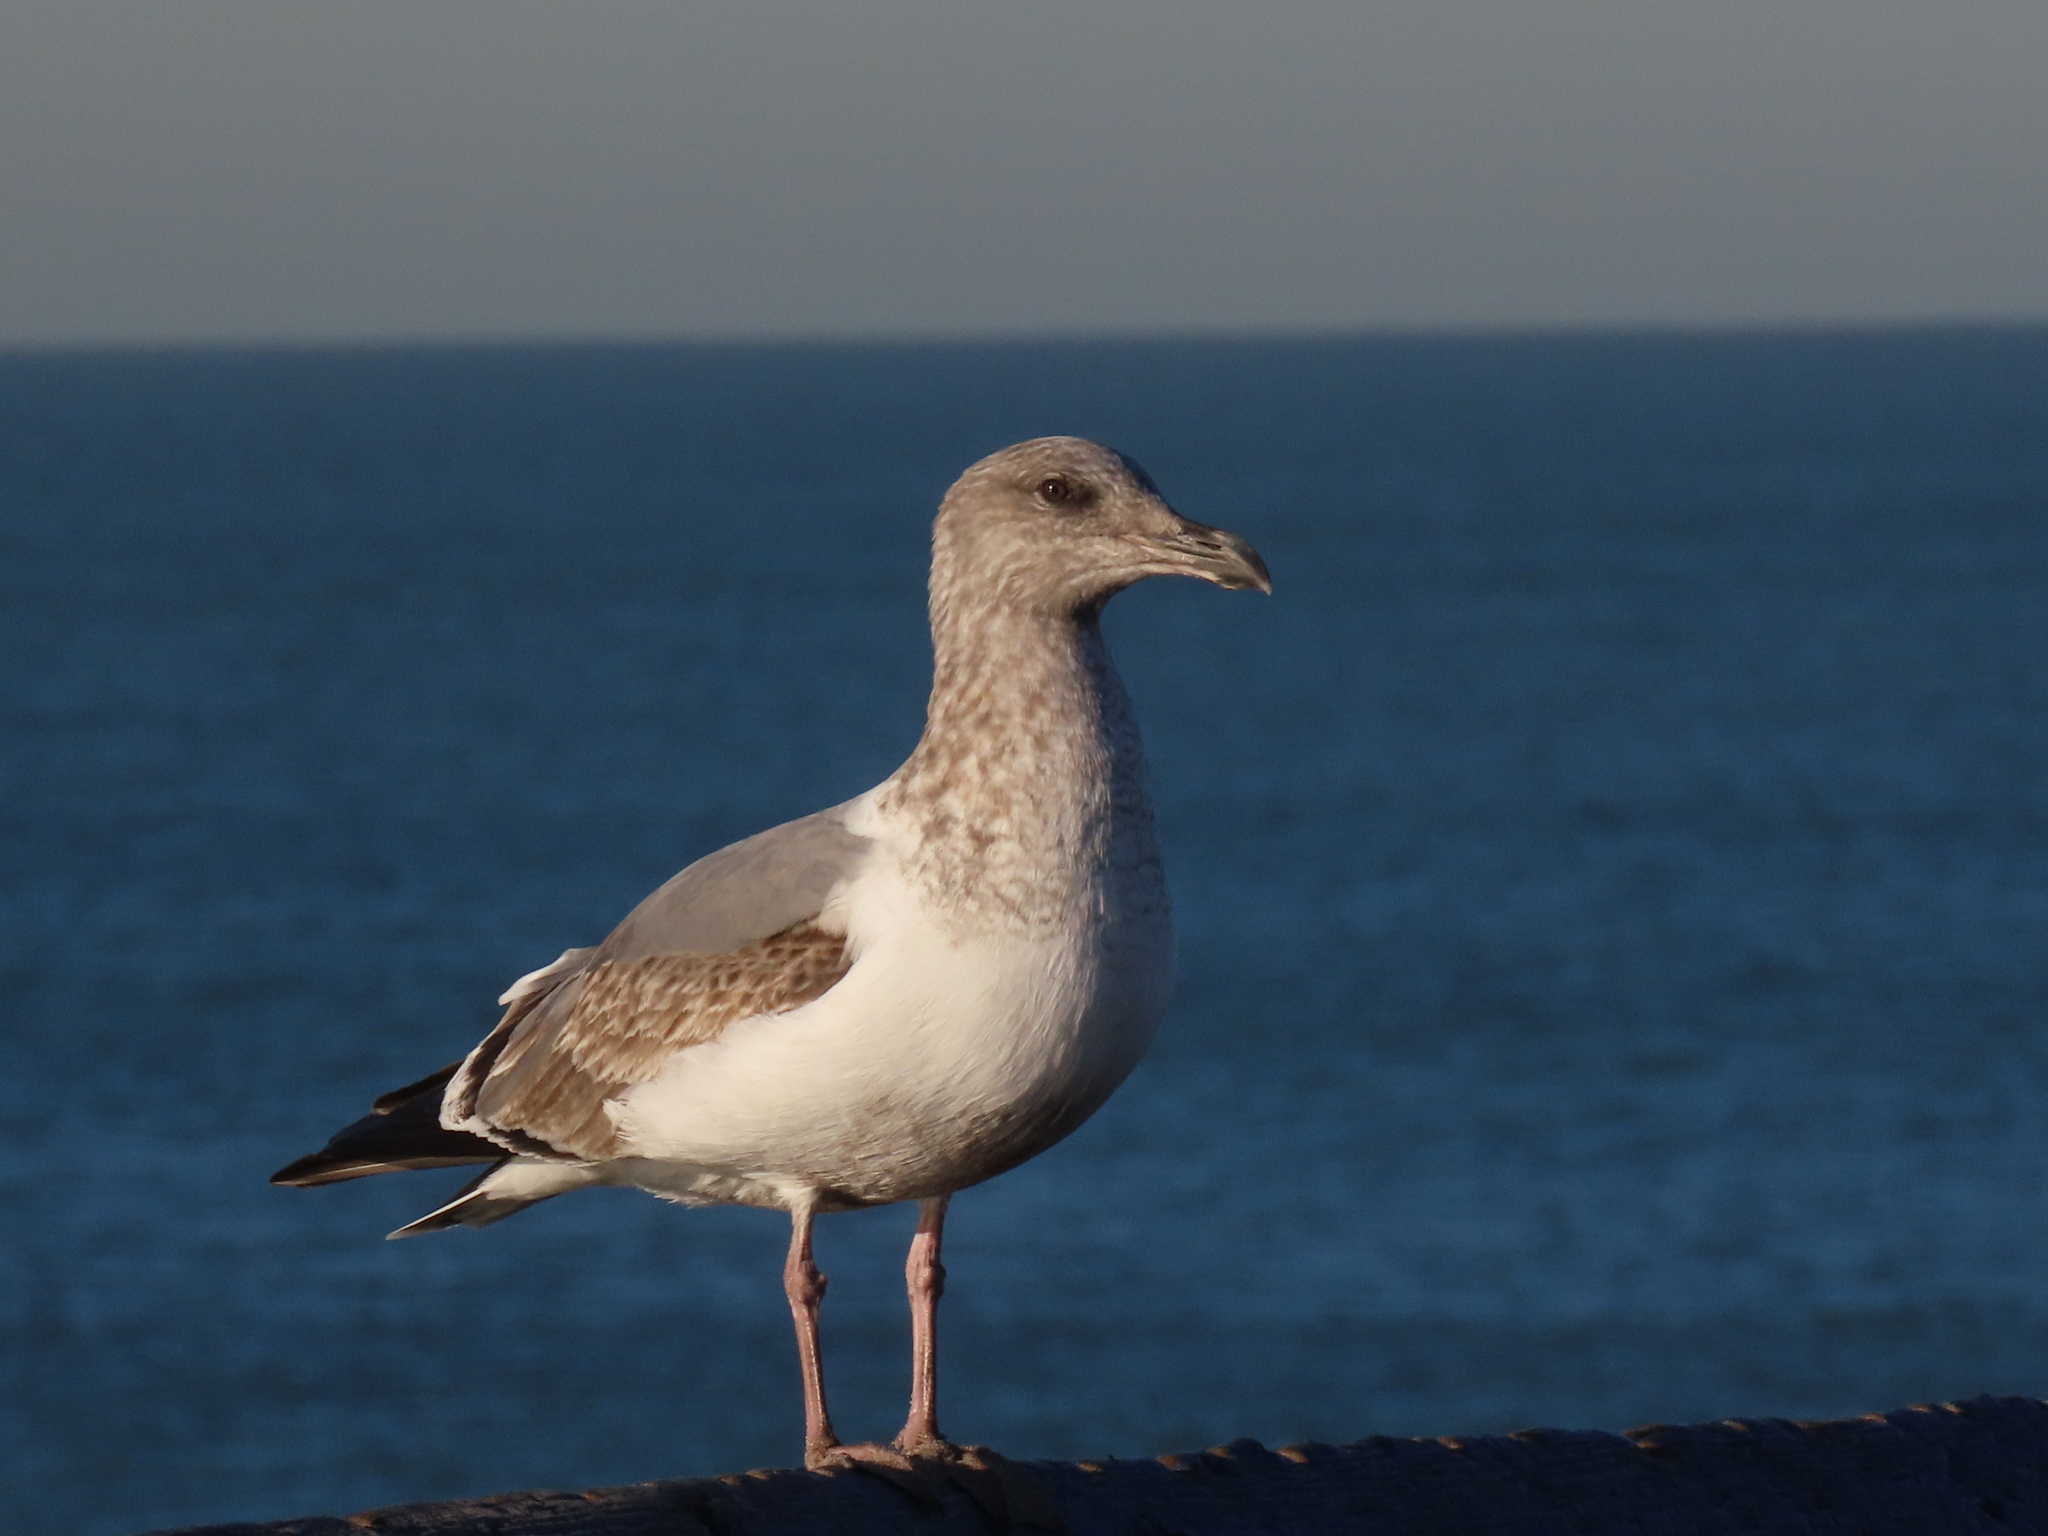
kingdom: Animalia
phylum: Chordata
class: Aves
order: Charadriiformes
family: Laridae
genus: Larus
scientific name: Larus
